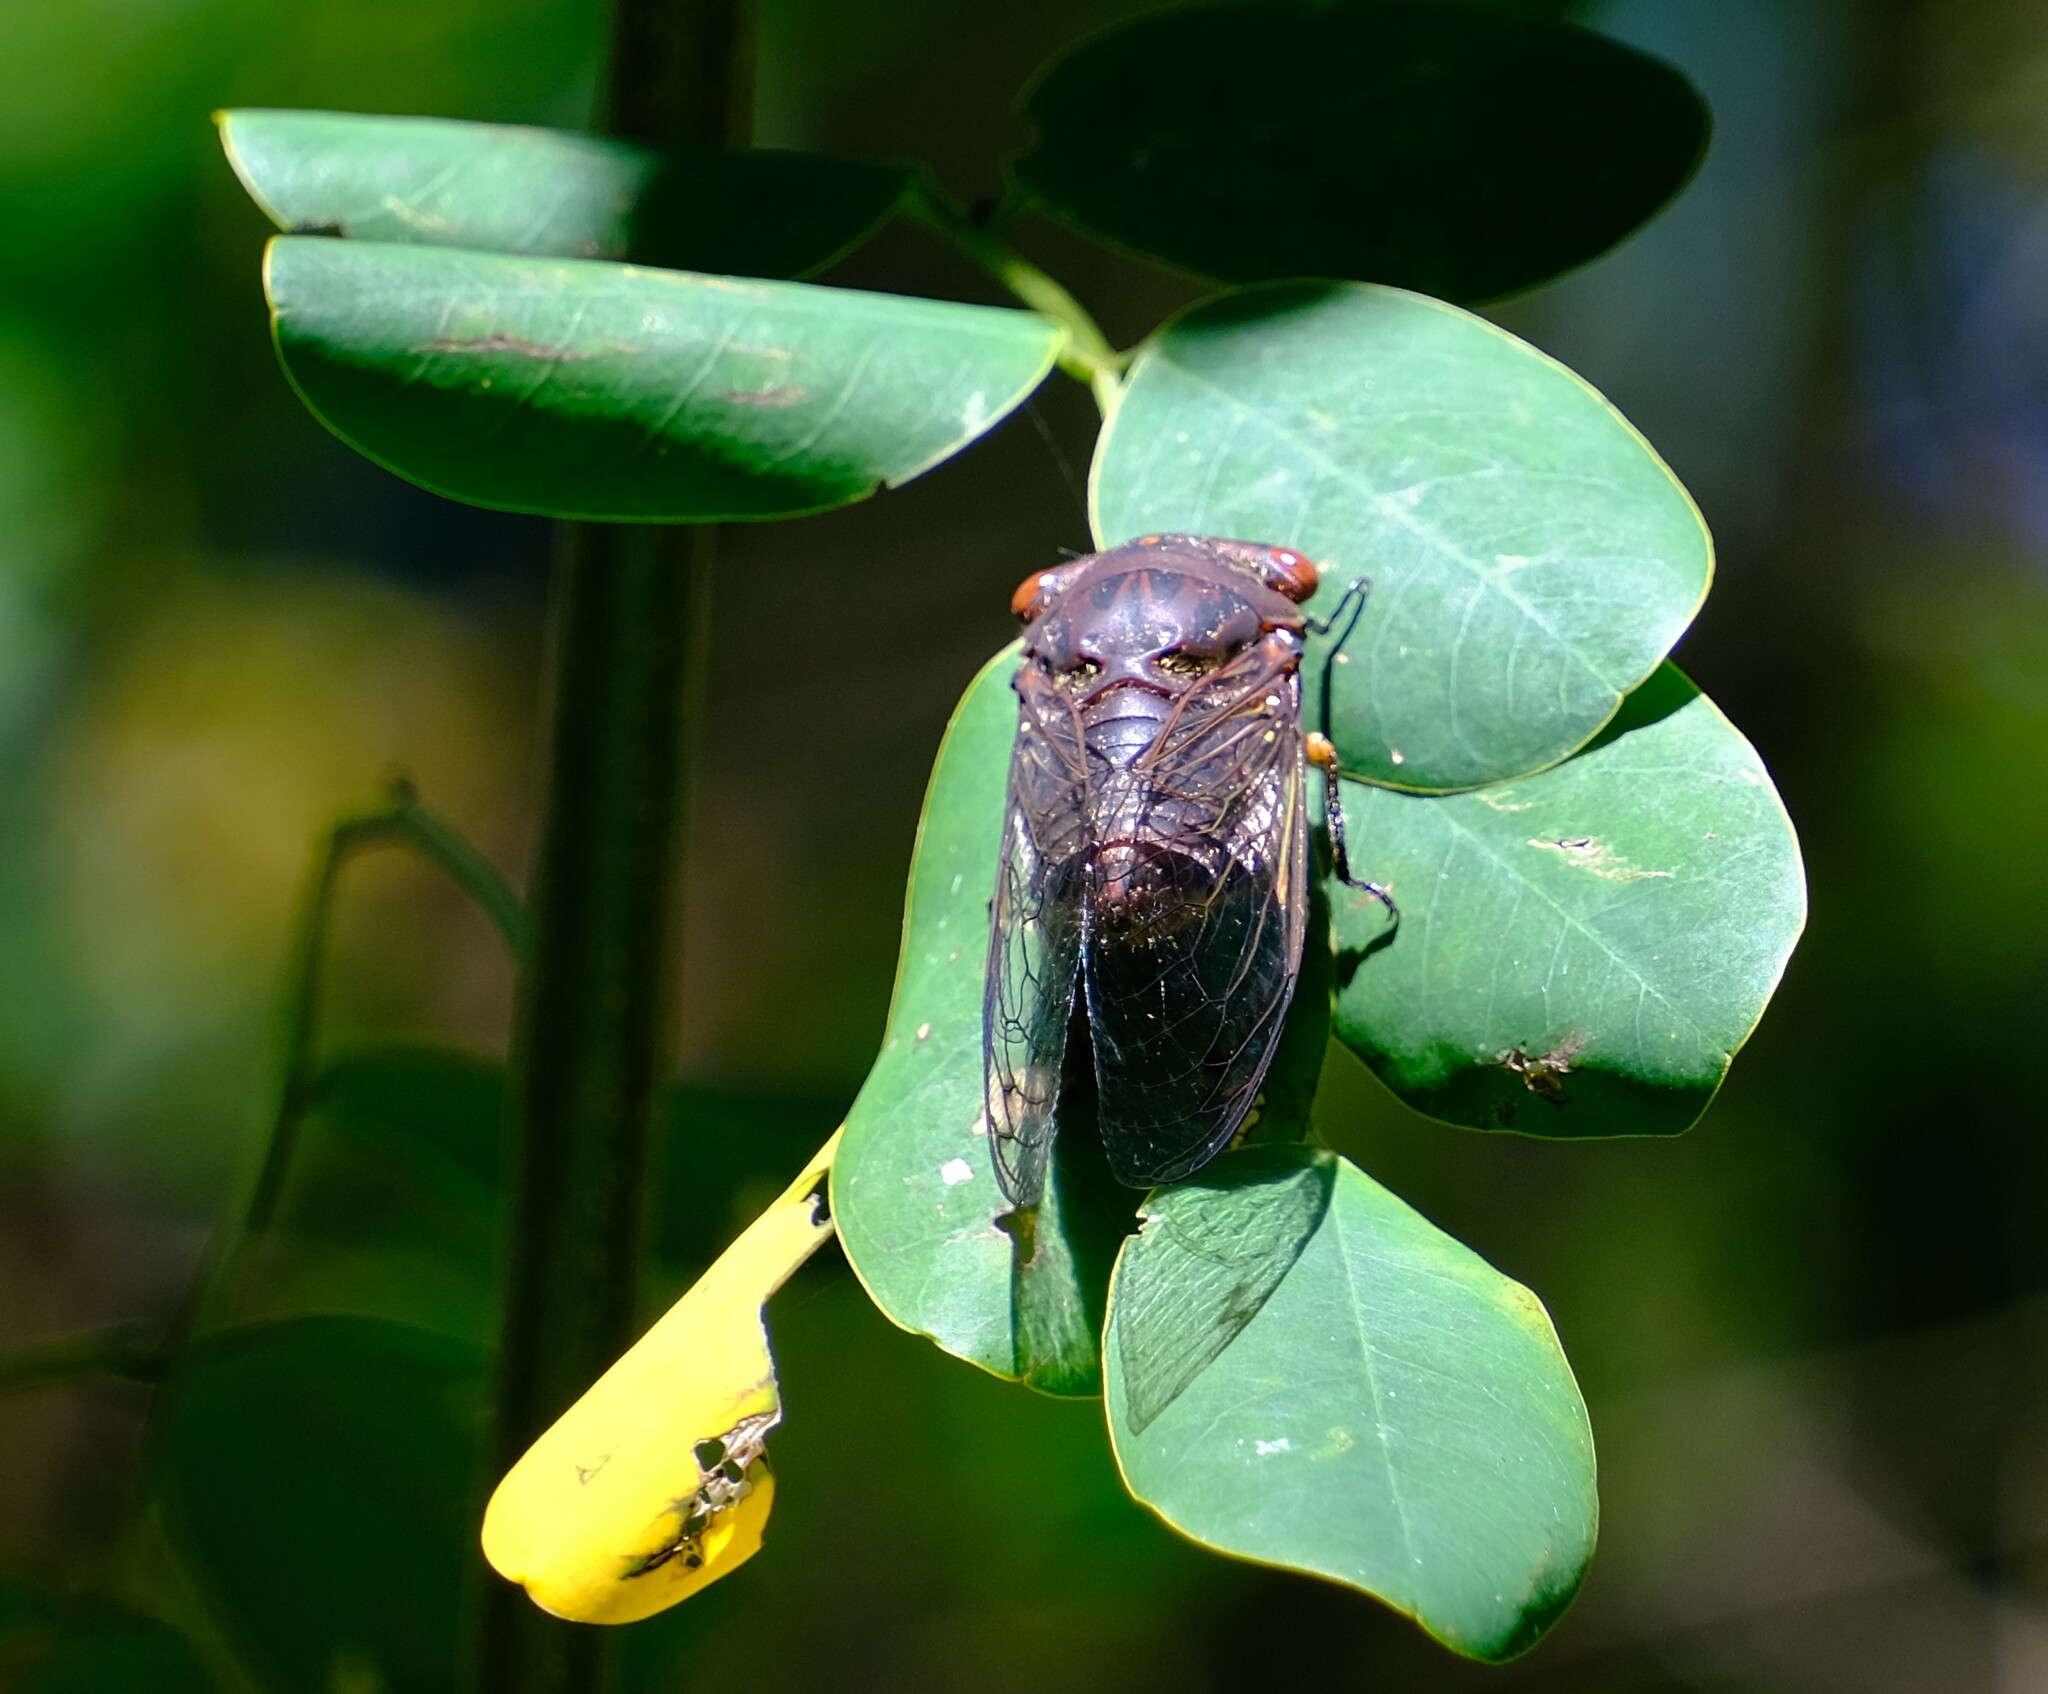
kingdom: Animalia
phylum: Arthropoda
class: Insecta
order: Hemiptera
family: Cicadidae
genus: Psaltoda
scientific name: Psaltoda plaga
